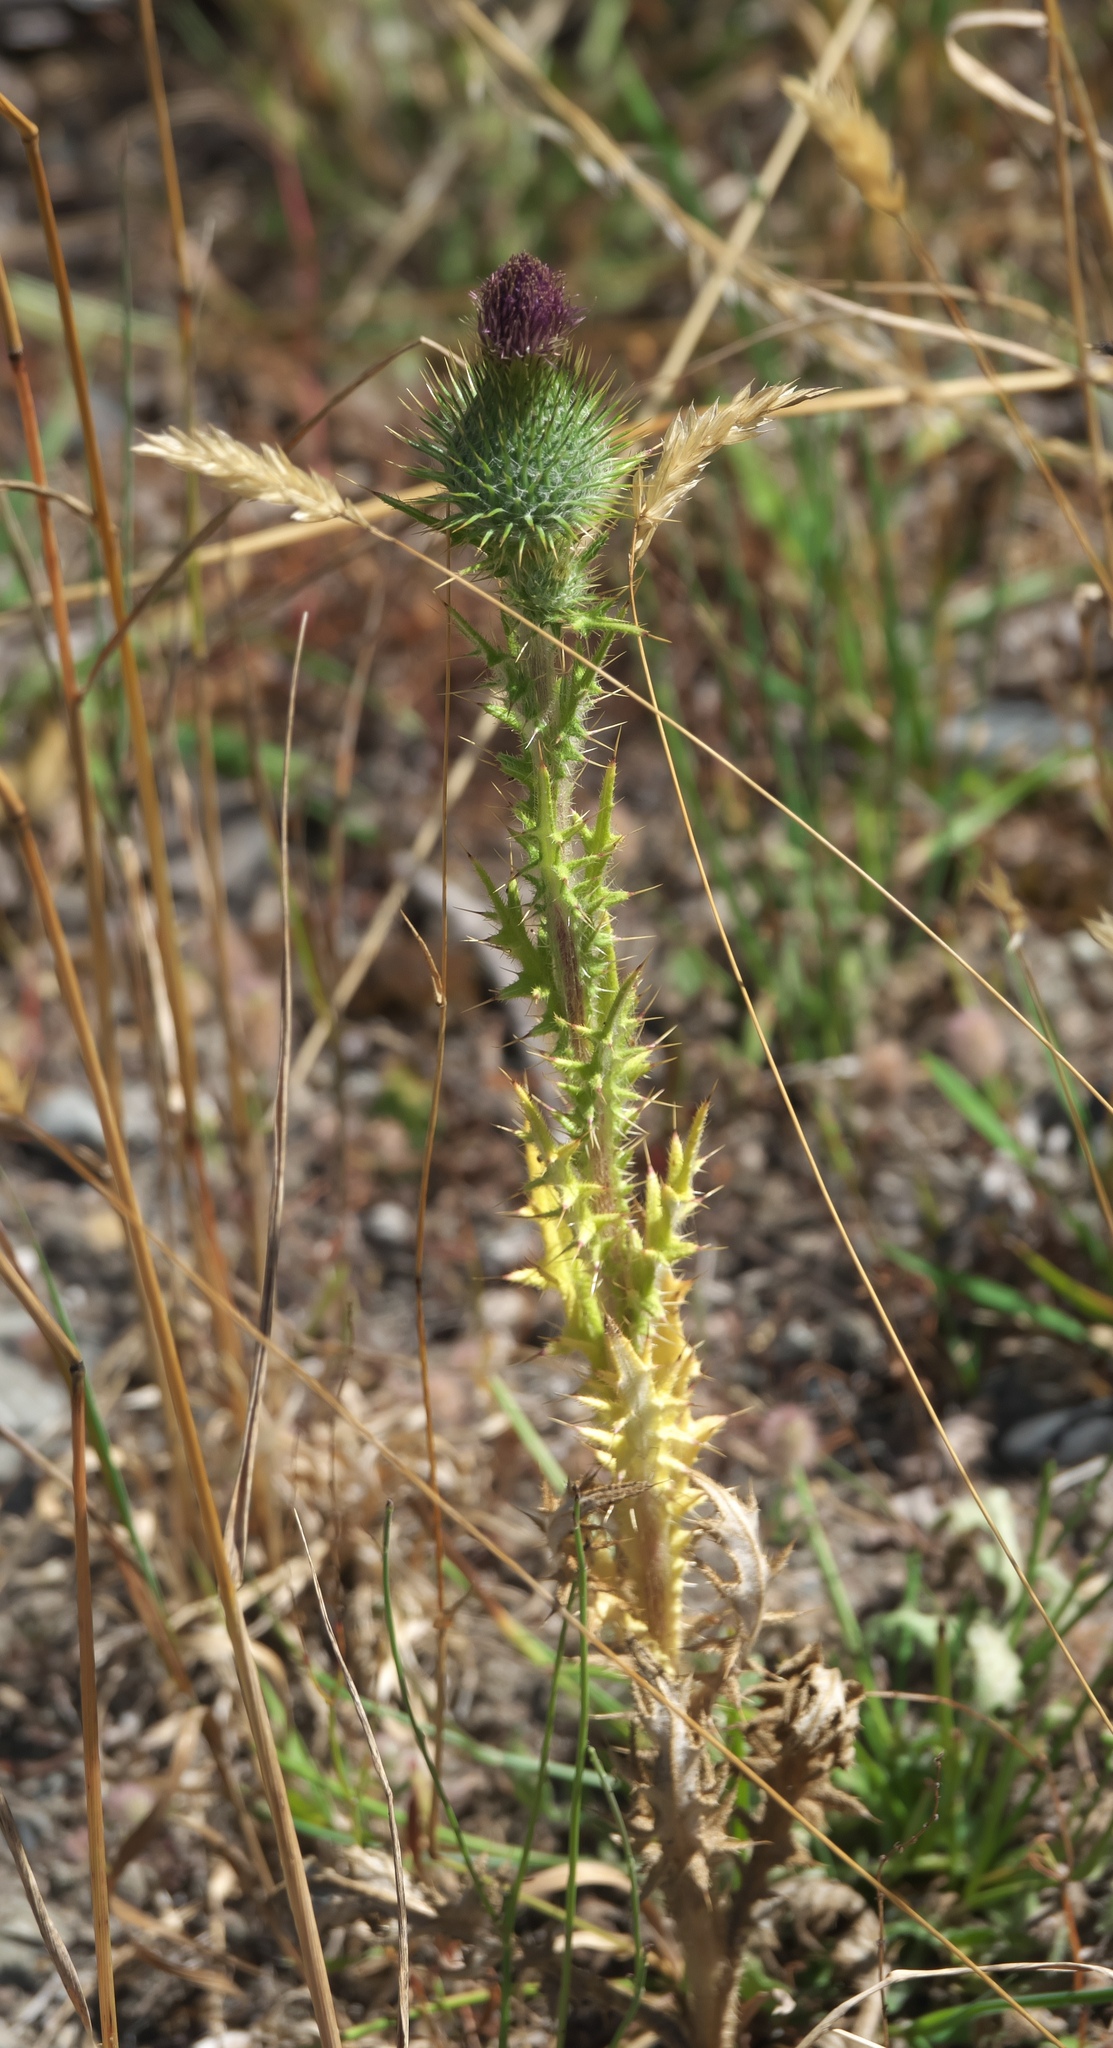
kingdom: Plantae
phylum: Tracheophyta
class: Magnoliopsida
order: Asterales
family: Asteraceae
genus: Cirsium
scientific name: Cirsium vulgare
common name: Bull thistle
